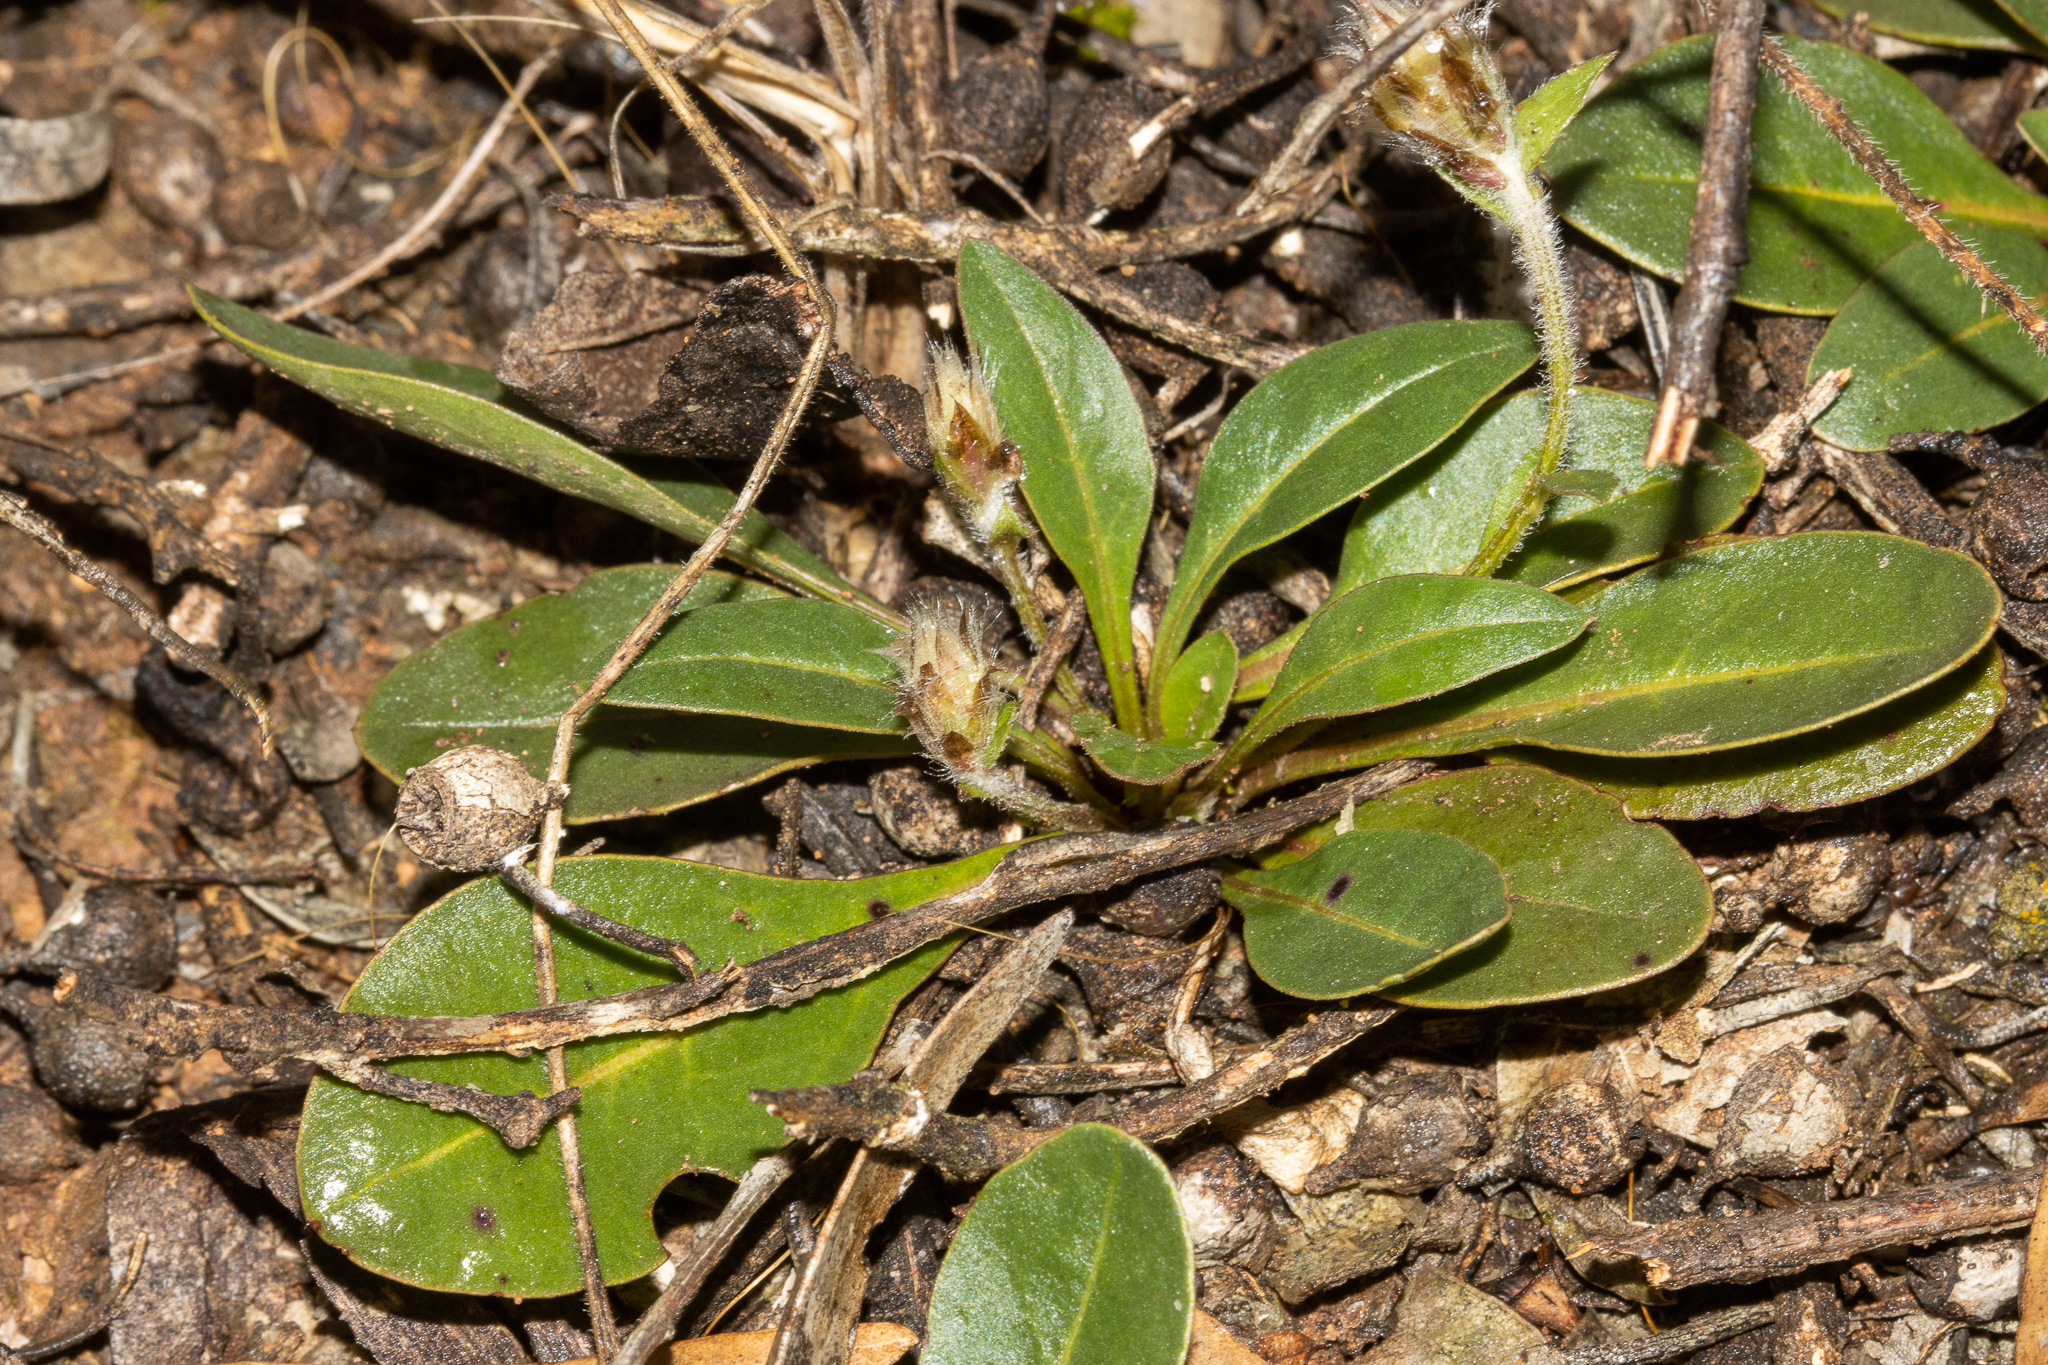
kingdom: Plantae
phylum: Tracheophyta
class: Magnoliopsida
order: Caryophyllales
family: Amaranthaceae
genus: Ptilotus
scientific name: Ptilotus seminudus
